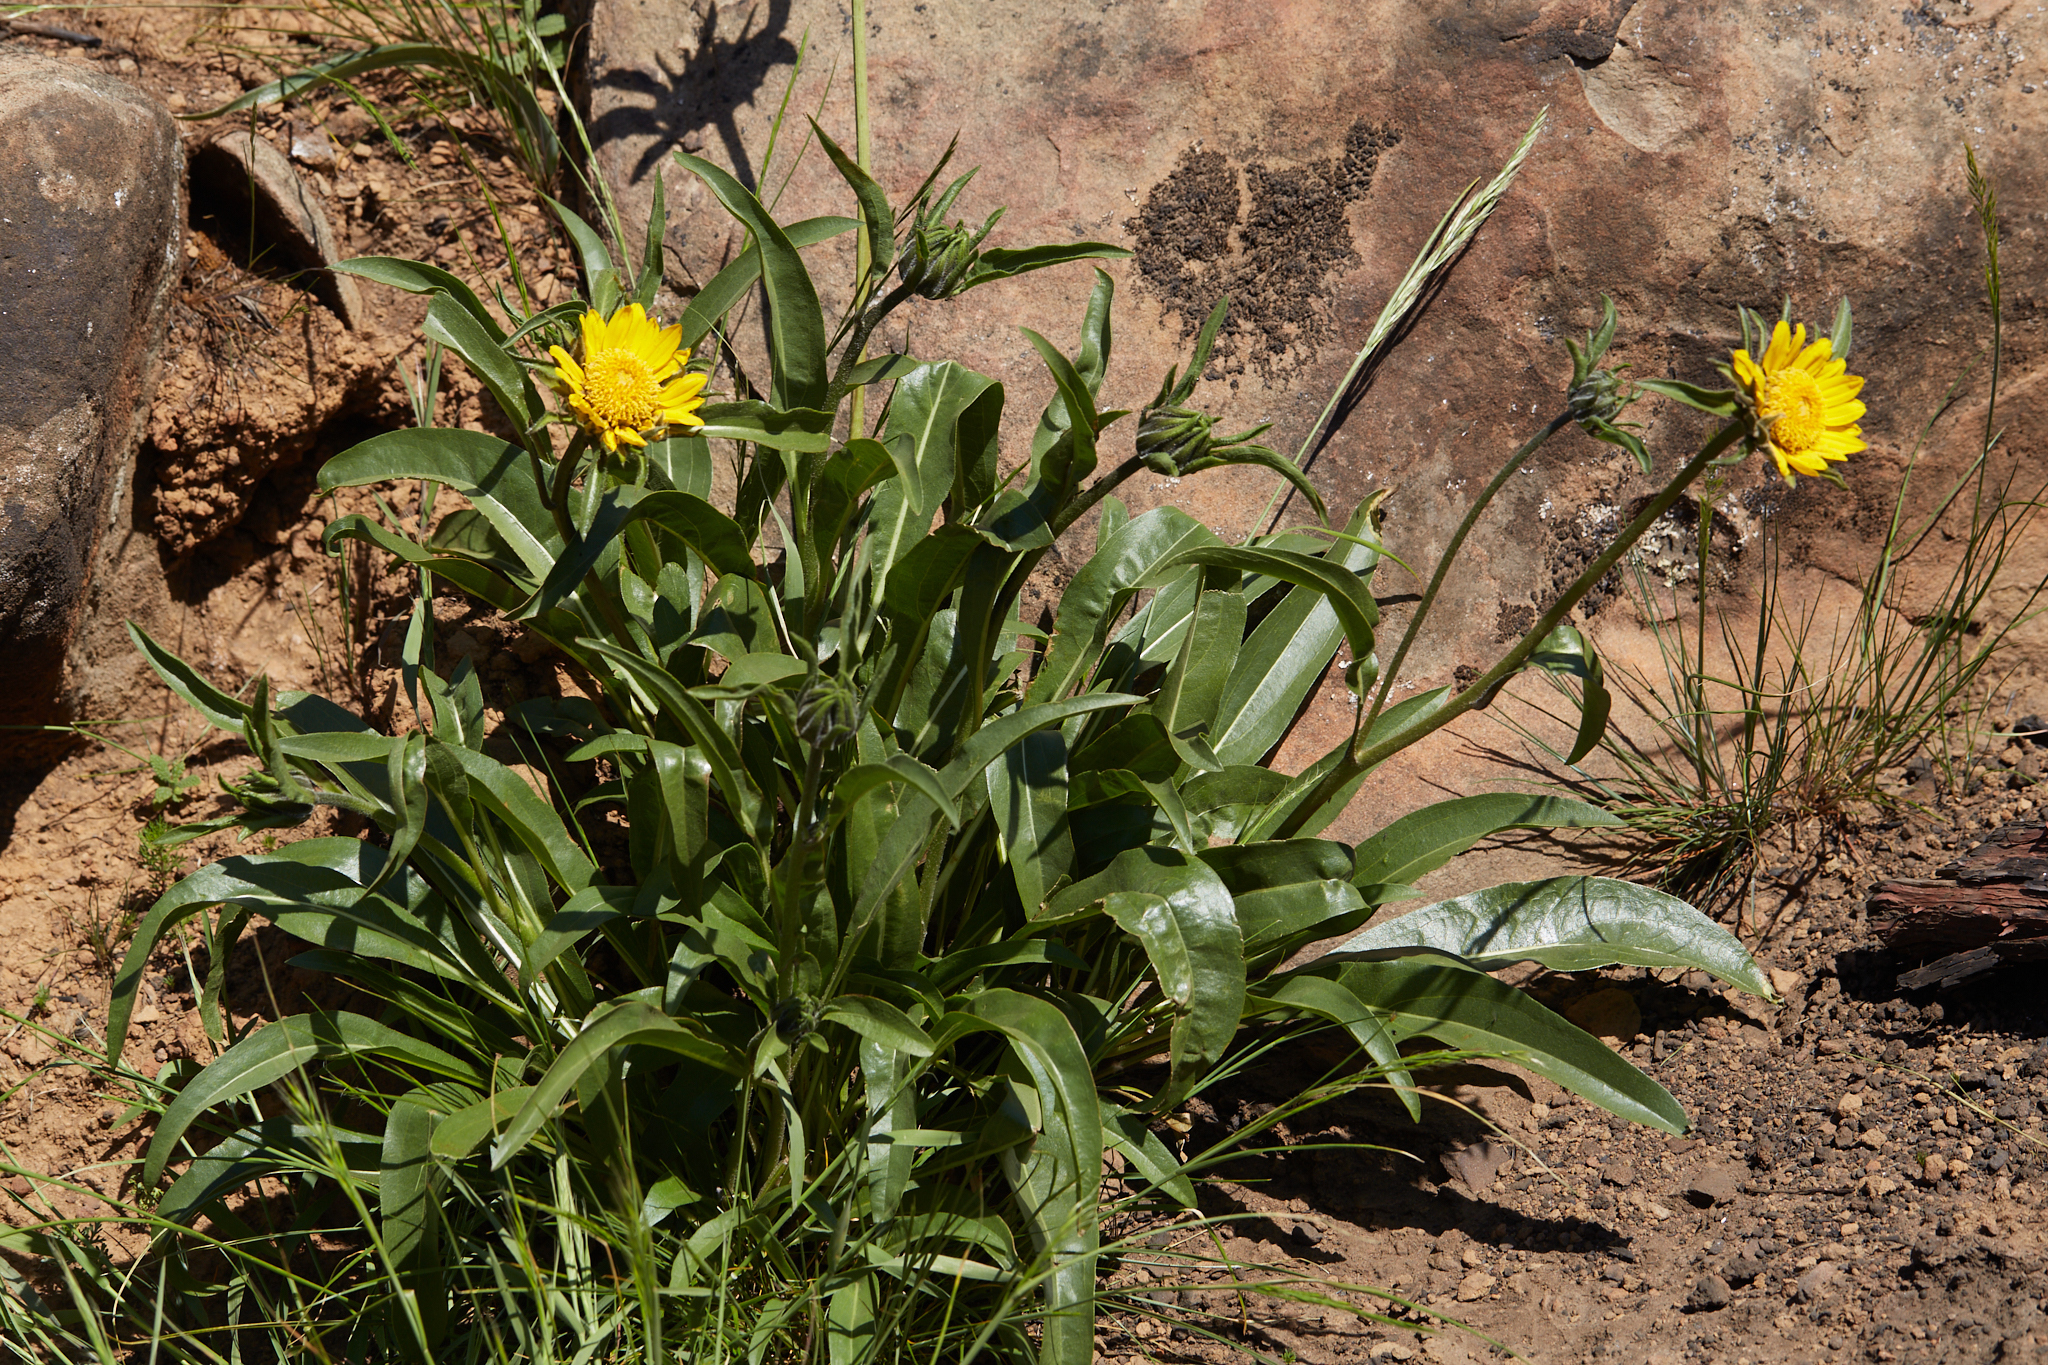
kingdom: Plantae
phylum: Tracheophyta
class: Magnoliopsida
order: Asterales
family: Asteraceae
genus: Helianthella
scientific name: Helianthella castanea
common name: Diablo helianthella
